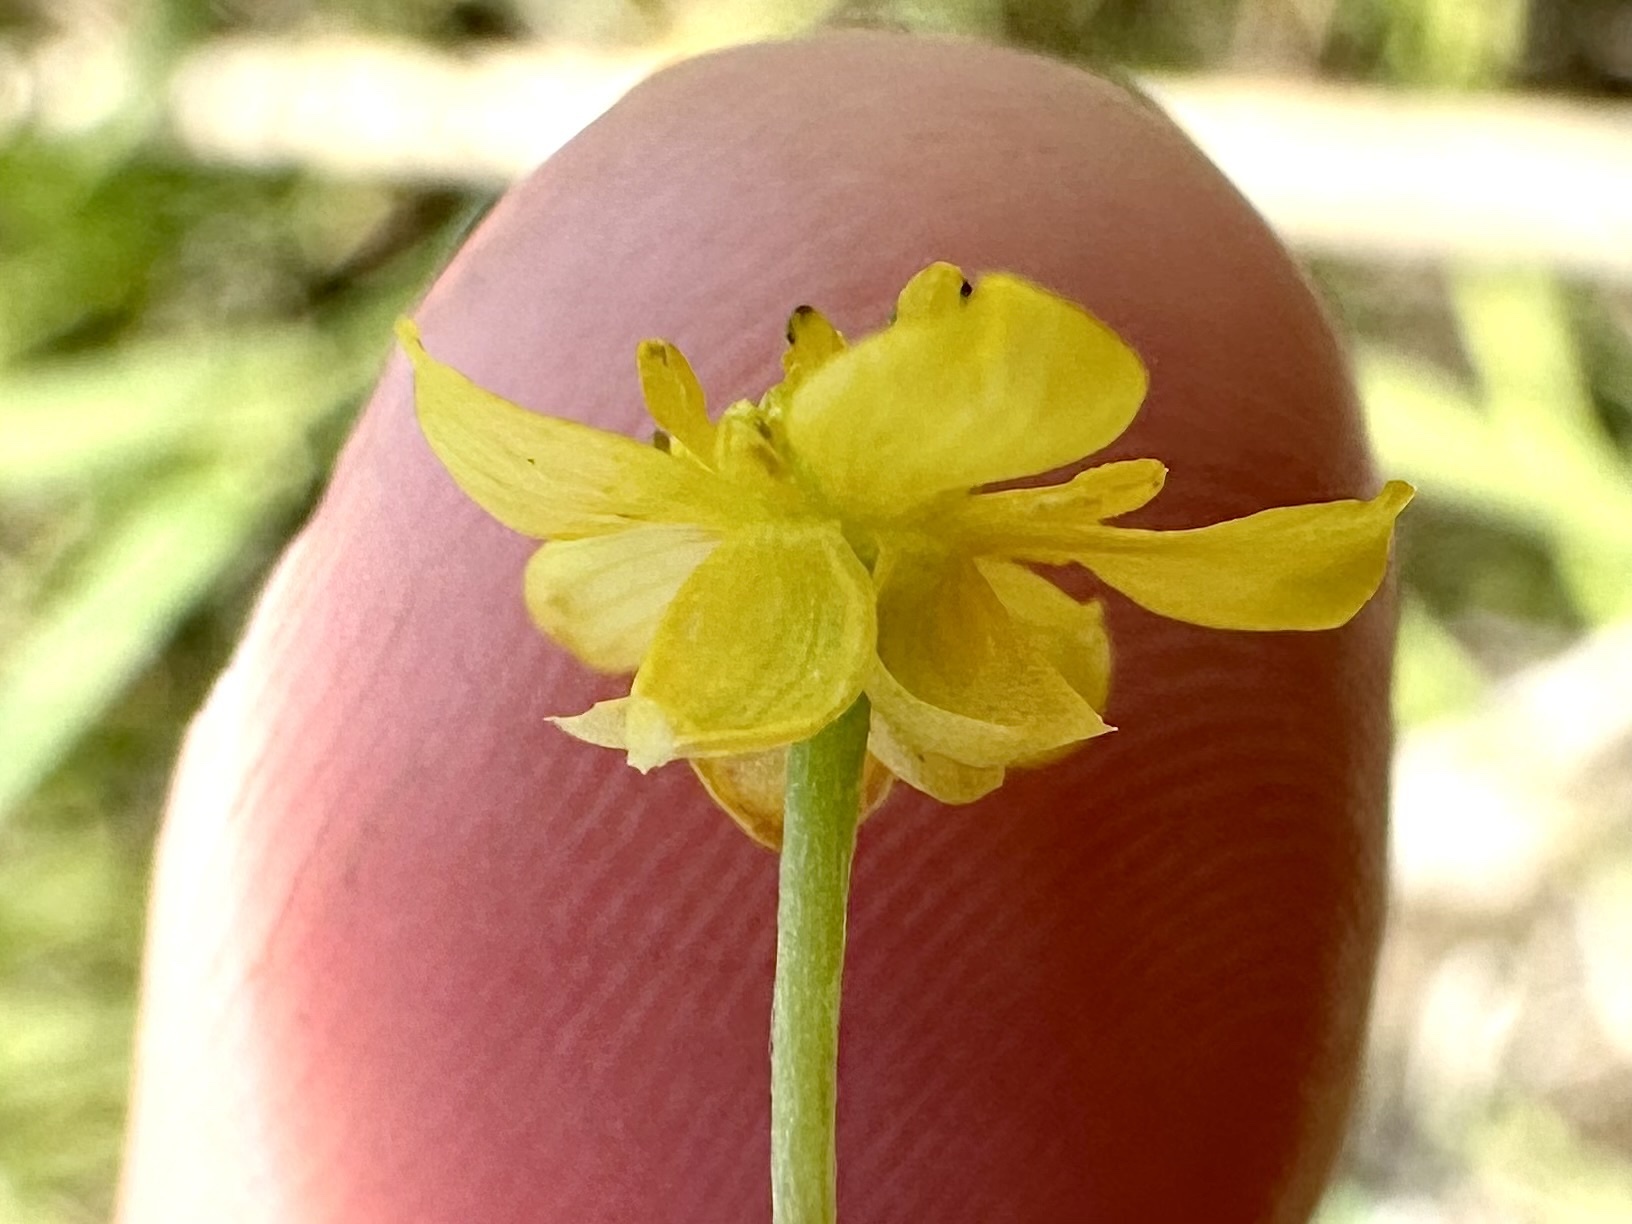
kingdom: Plantae
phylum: Tracheophyta
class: Magnoliopsida
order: Ranunculales
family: Ranunculaceae
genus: Ranunculus
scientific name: Ranunculus flammula
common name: Lesser spearwort
